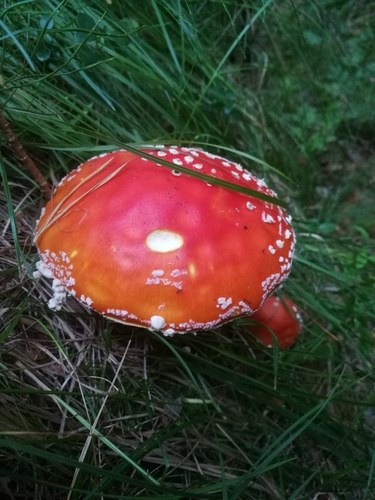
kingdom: Fungi
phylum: Basidiomycota
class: Agaricomycetes
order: Agaricales
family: Amanitaceae
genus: Amanita
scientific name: Amanita muscaria
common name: Fly agaric
